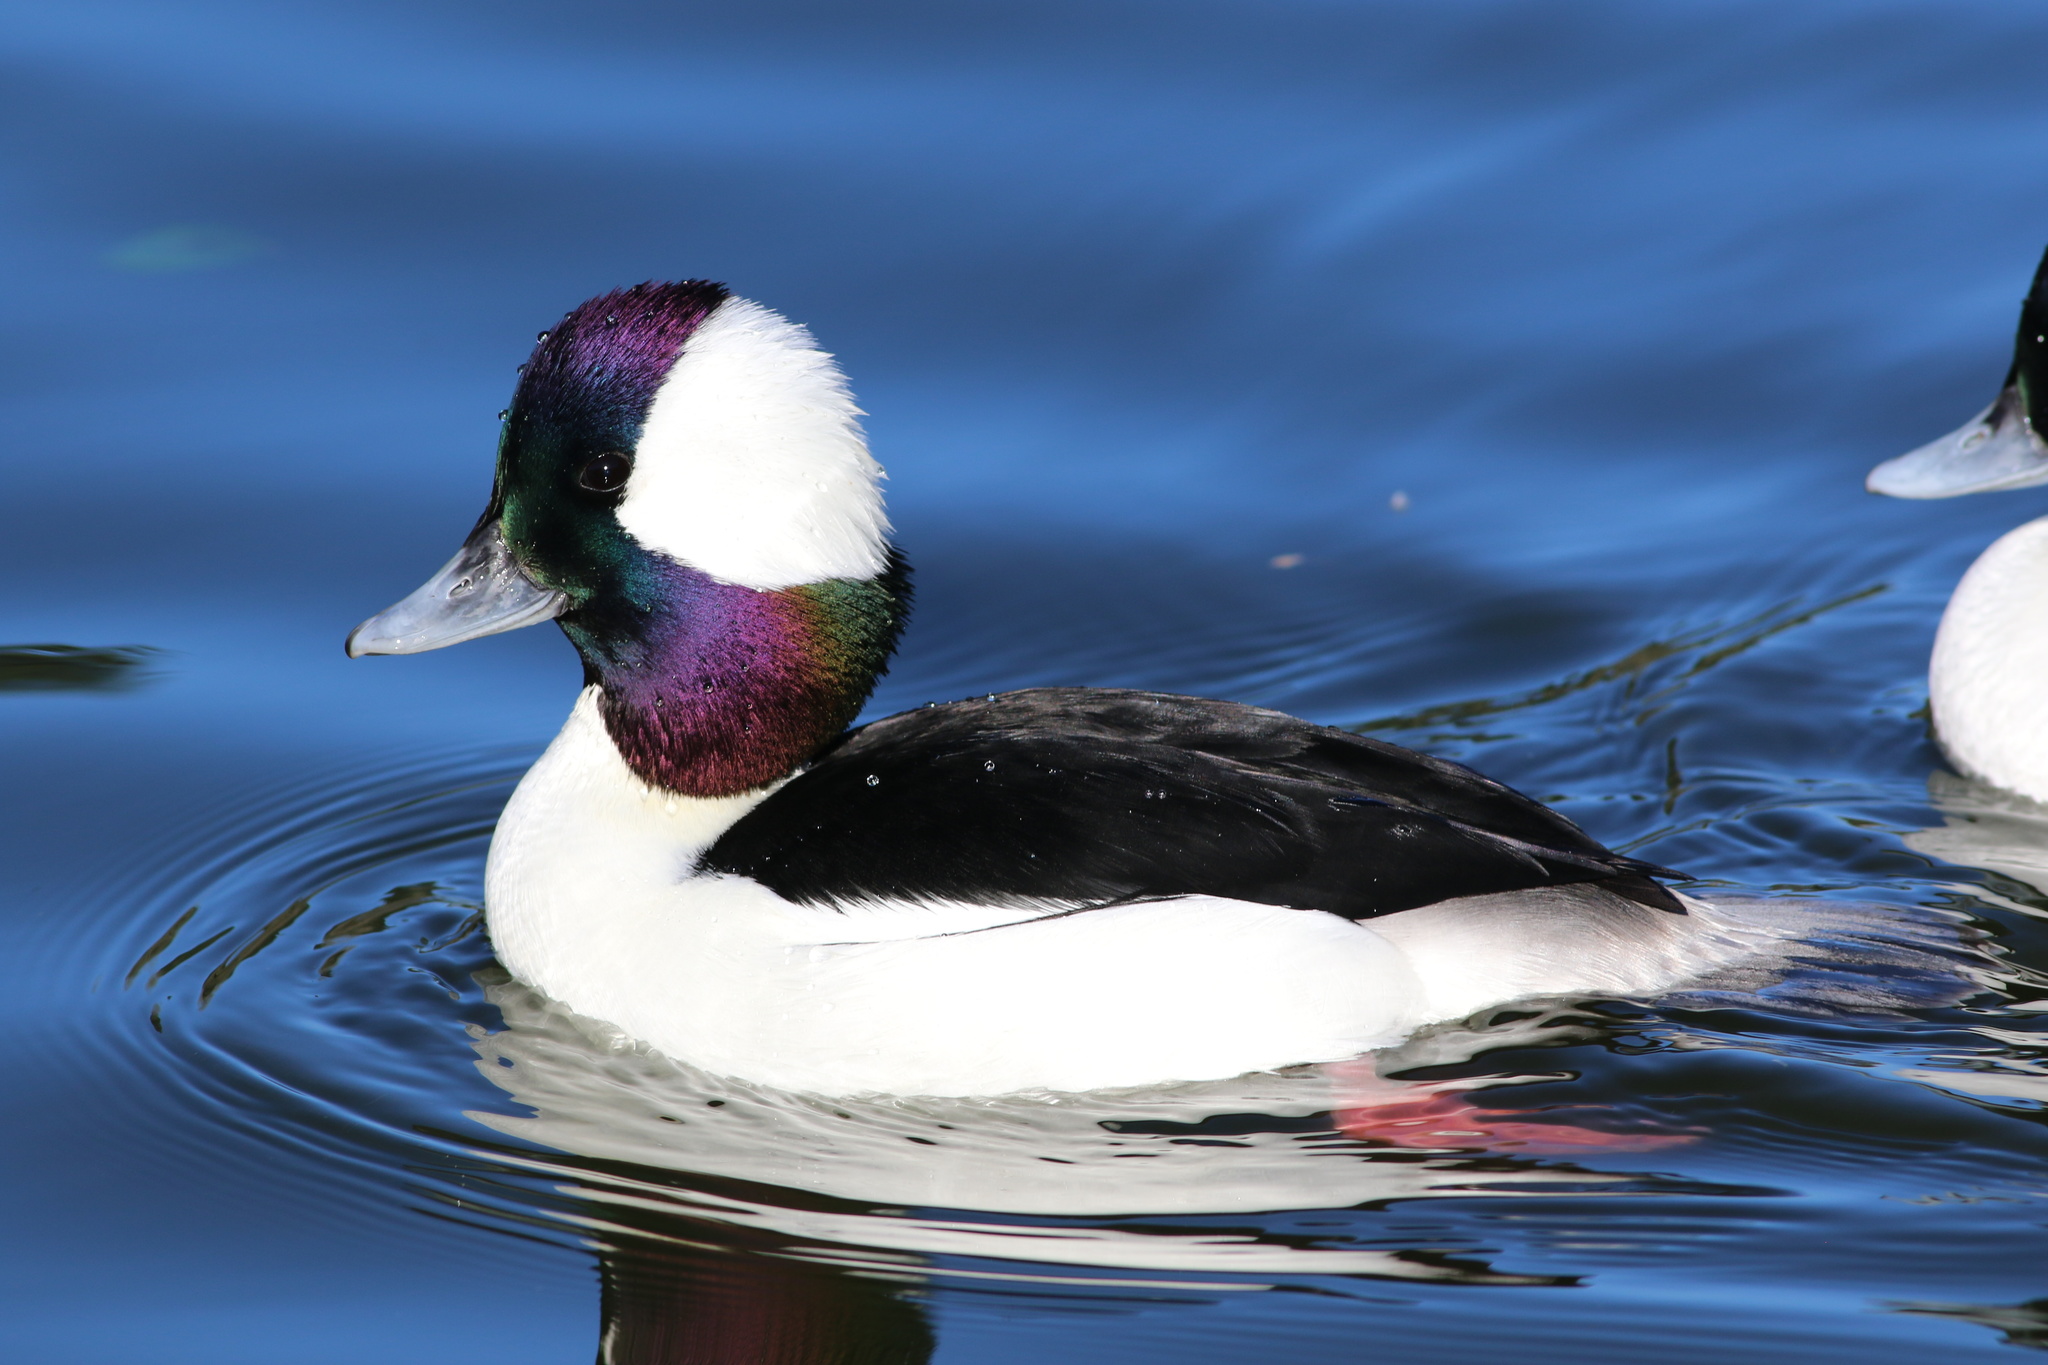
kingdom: Animalia
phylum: Chordata
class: Aves
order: Anseriformes
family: Anatidae
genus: Bucephala
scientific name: Bucephala albeola
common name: Bufflehead
